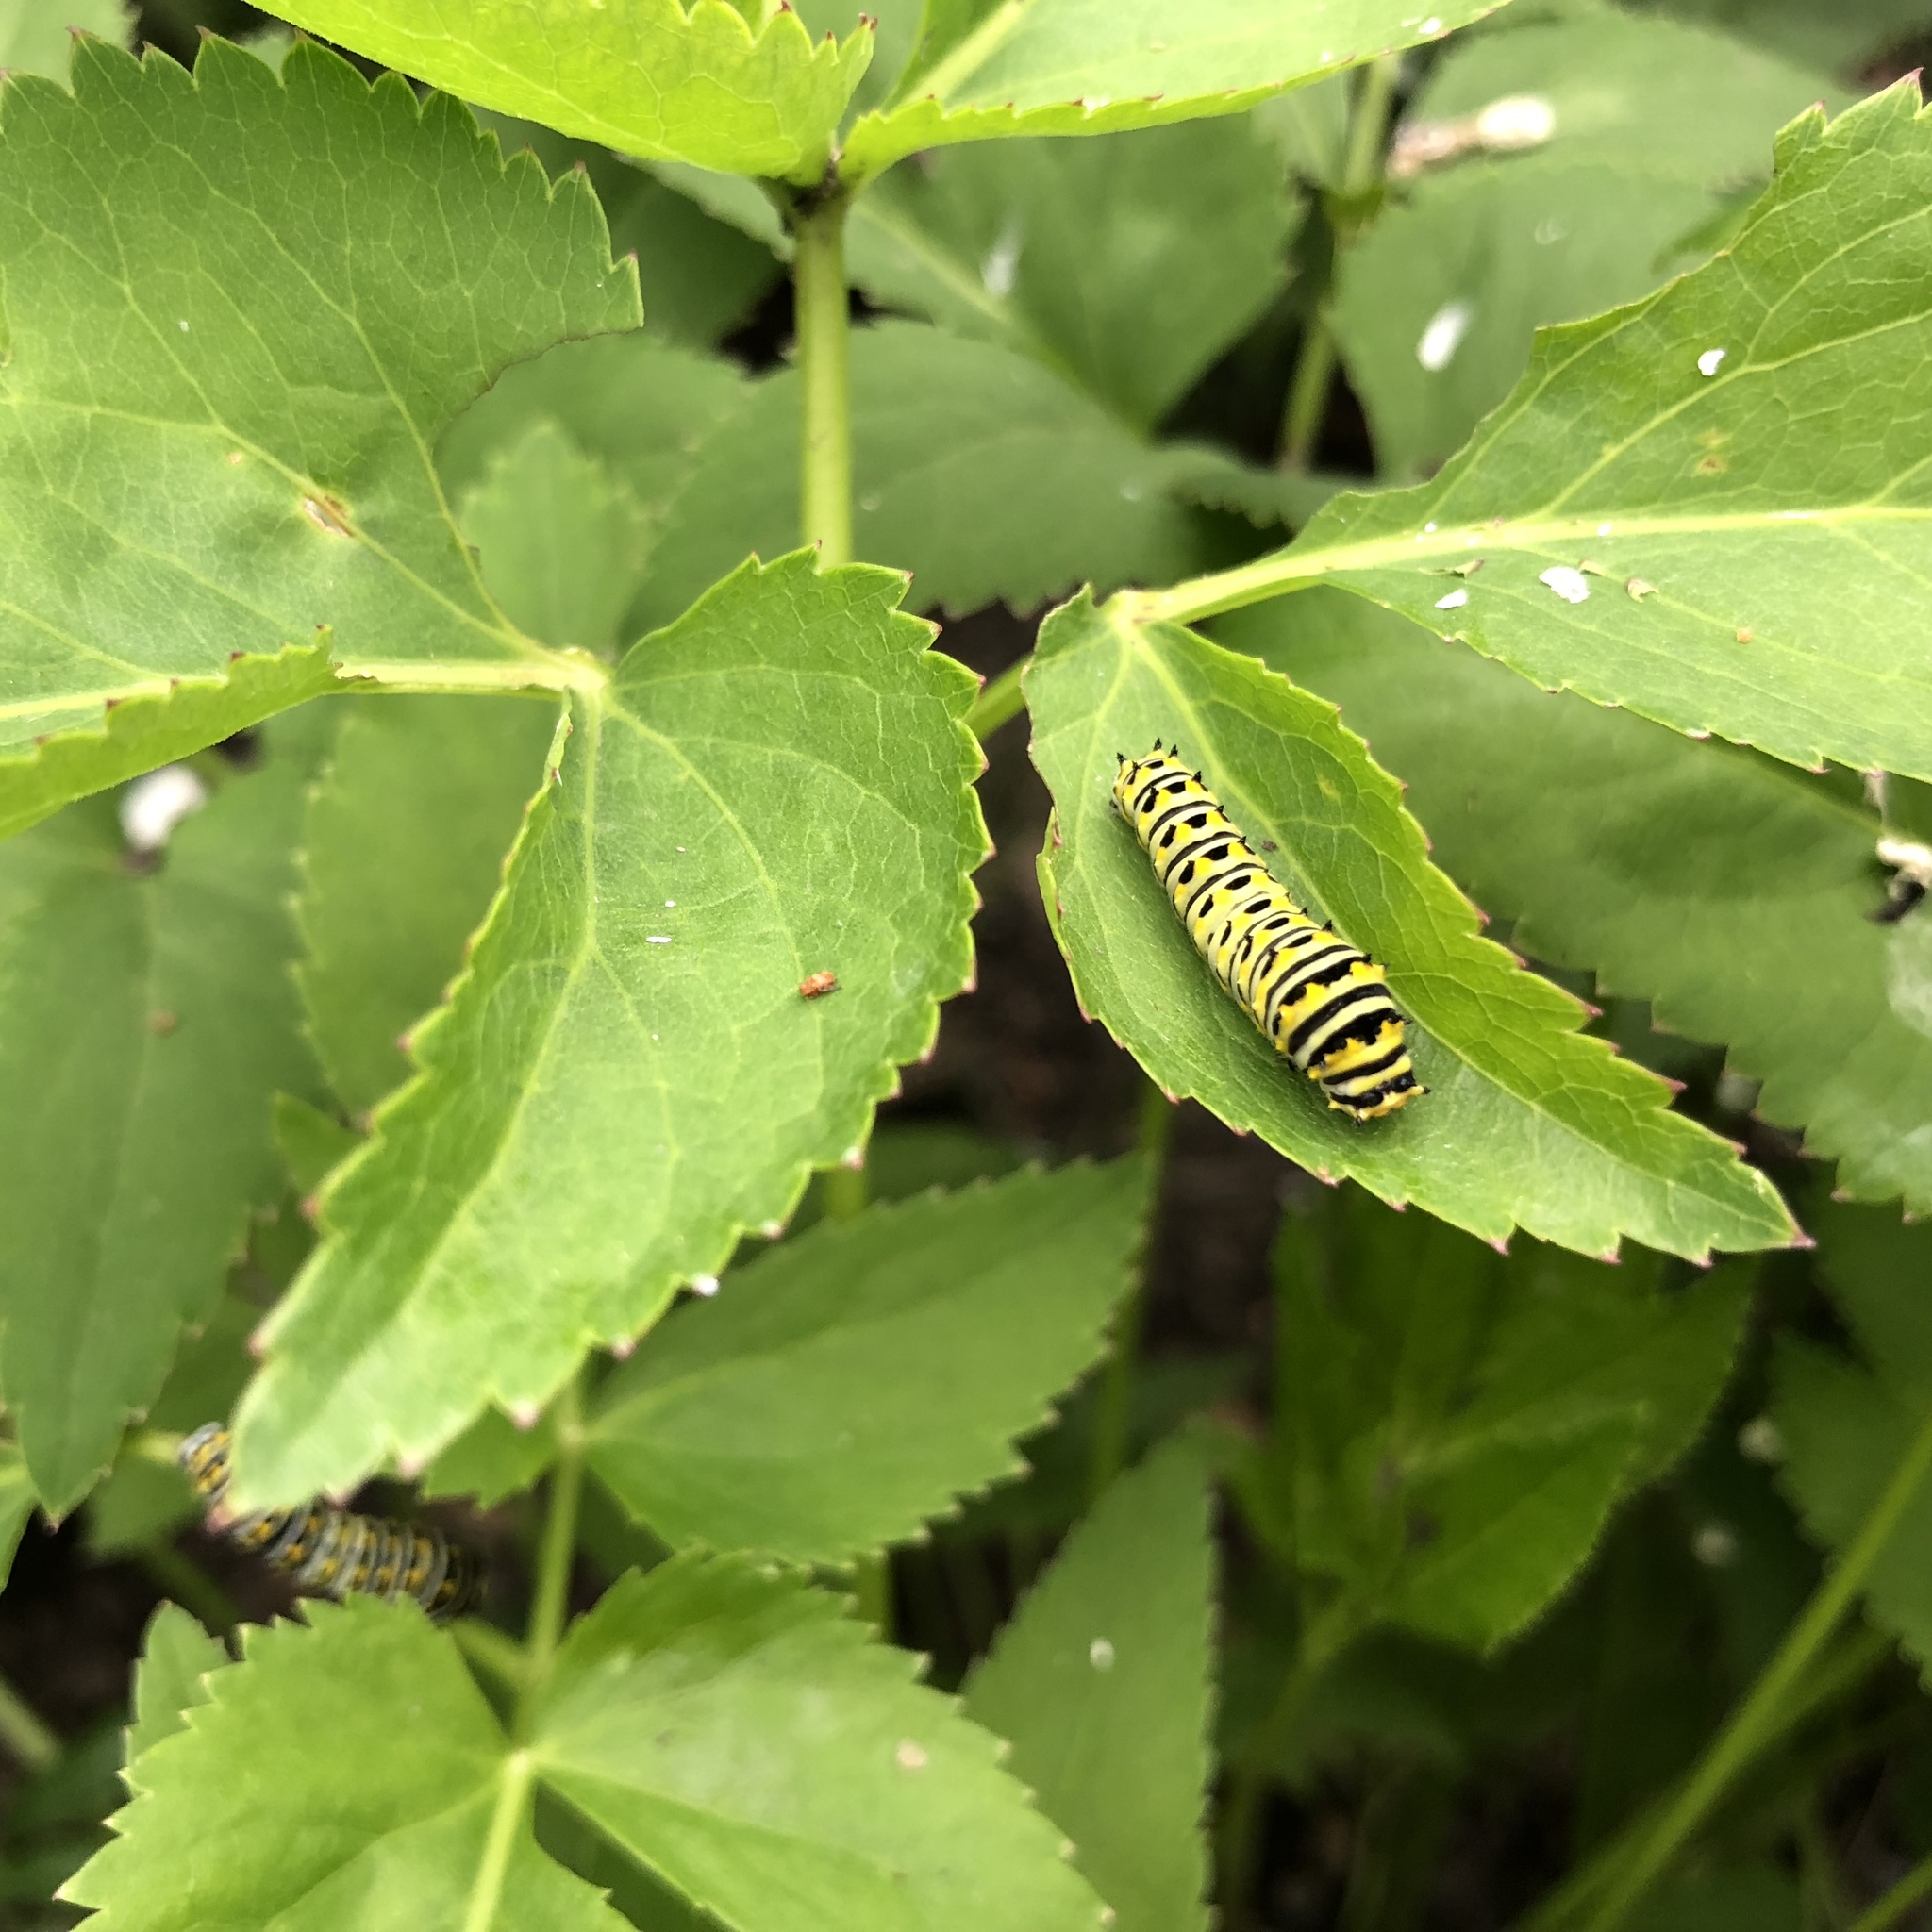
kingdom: Animalia
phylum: Arthropoda
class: Insecta
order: Lepidoptera
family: Papilionidae
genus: Papilio
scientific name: Papilio polyxenes
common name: Black swallowtail
